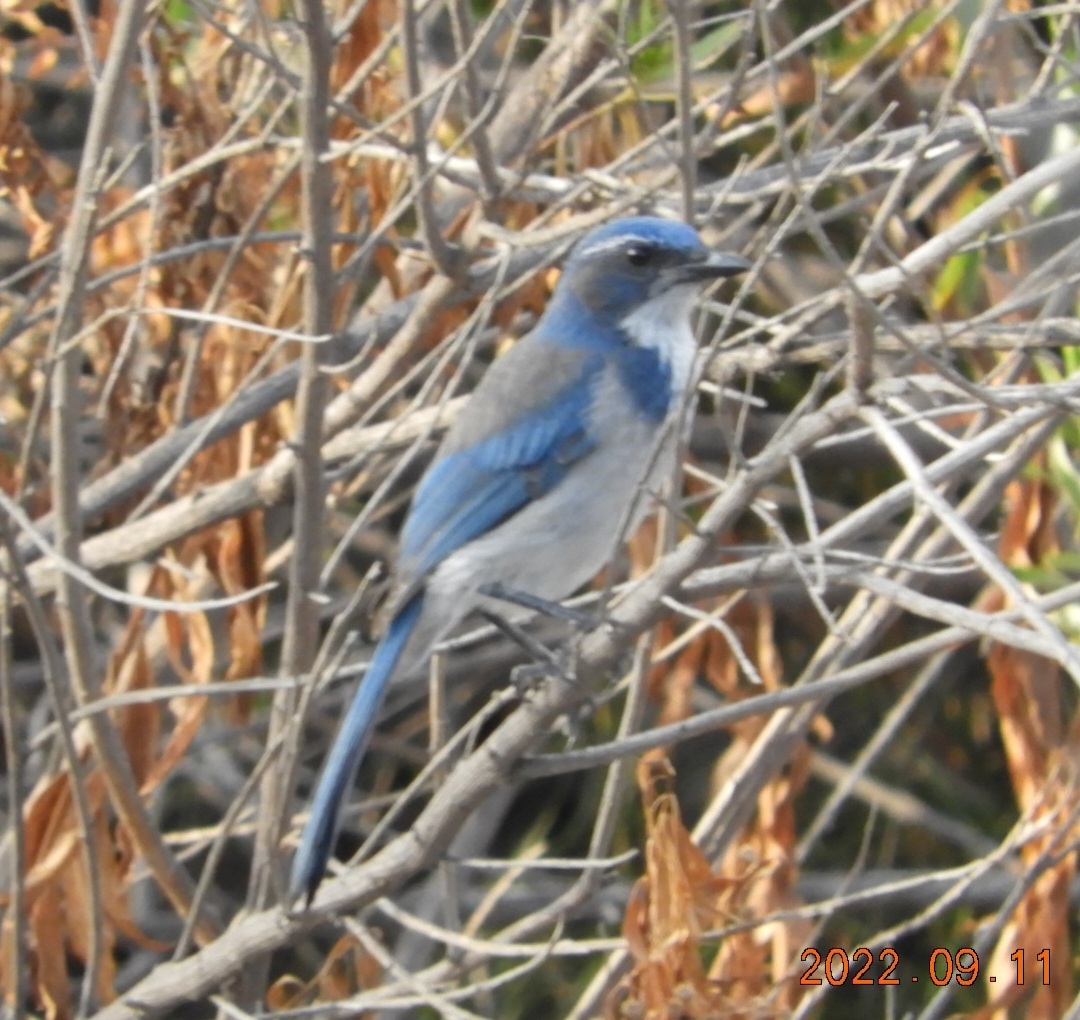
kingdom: Animalia
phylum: Chordata
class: Aves
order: Passeriformes
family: Corvidae
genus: Aphelocoma
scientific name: Aphelocoma californica
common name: California scrub-jay
